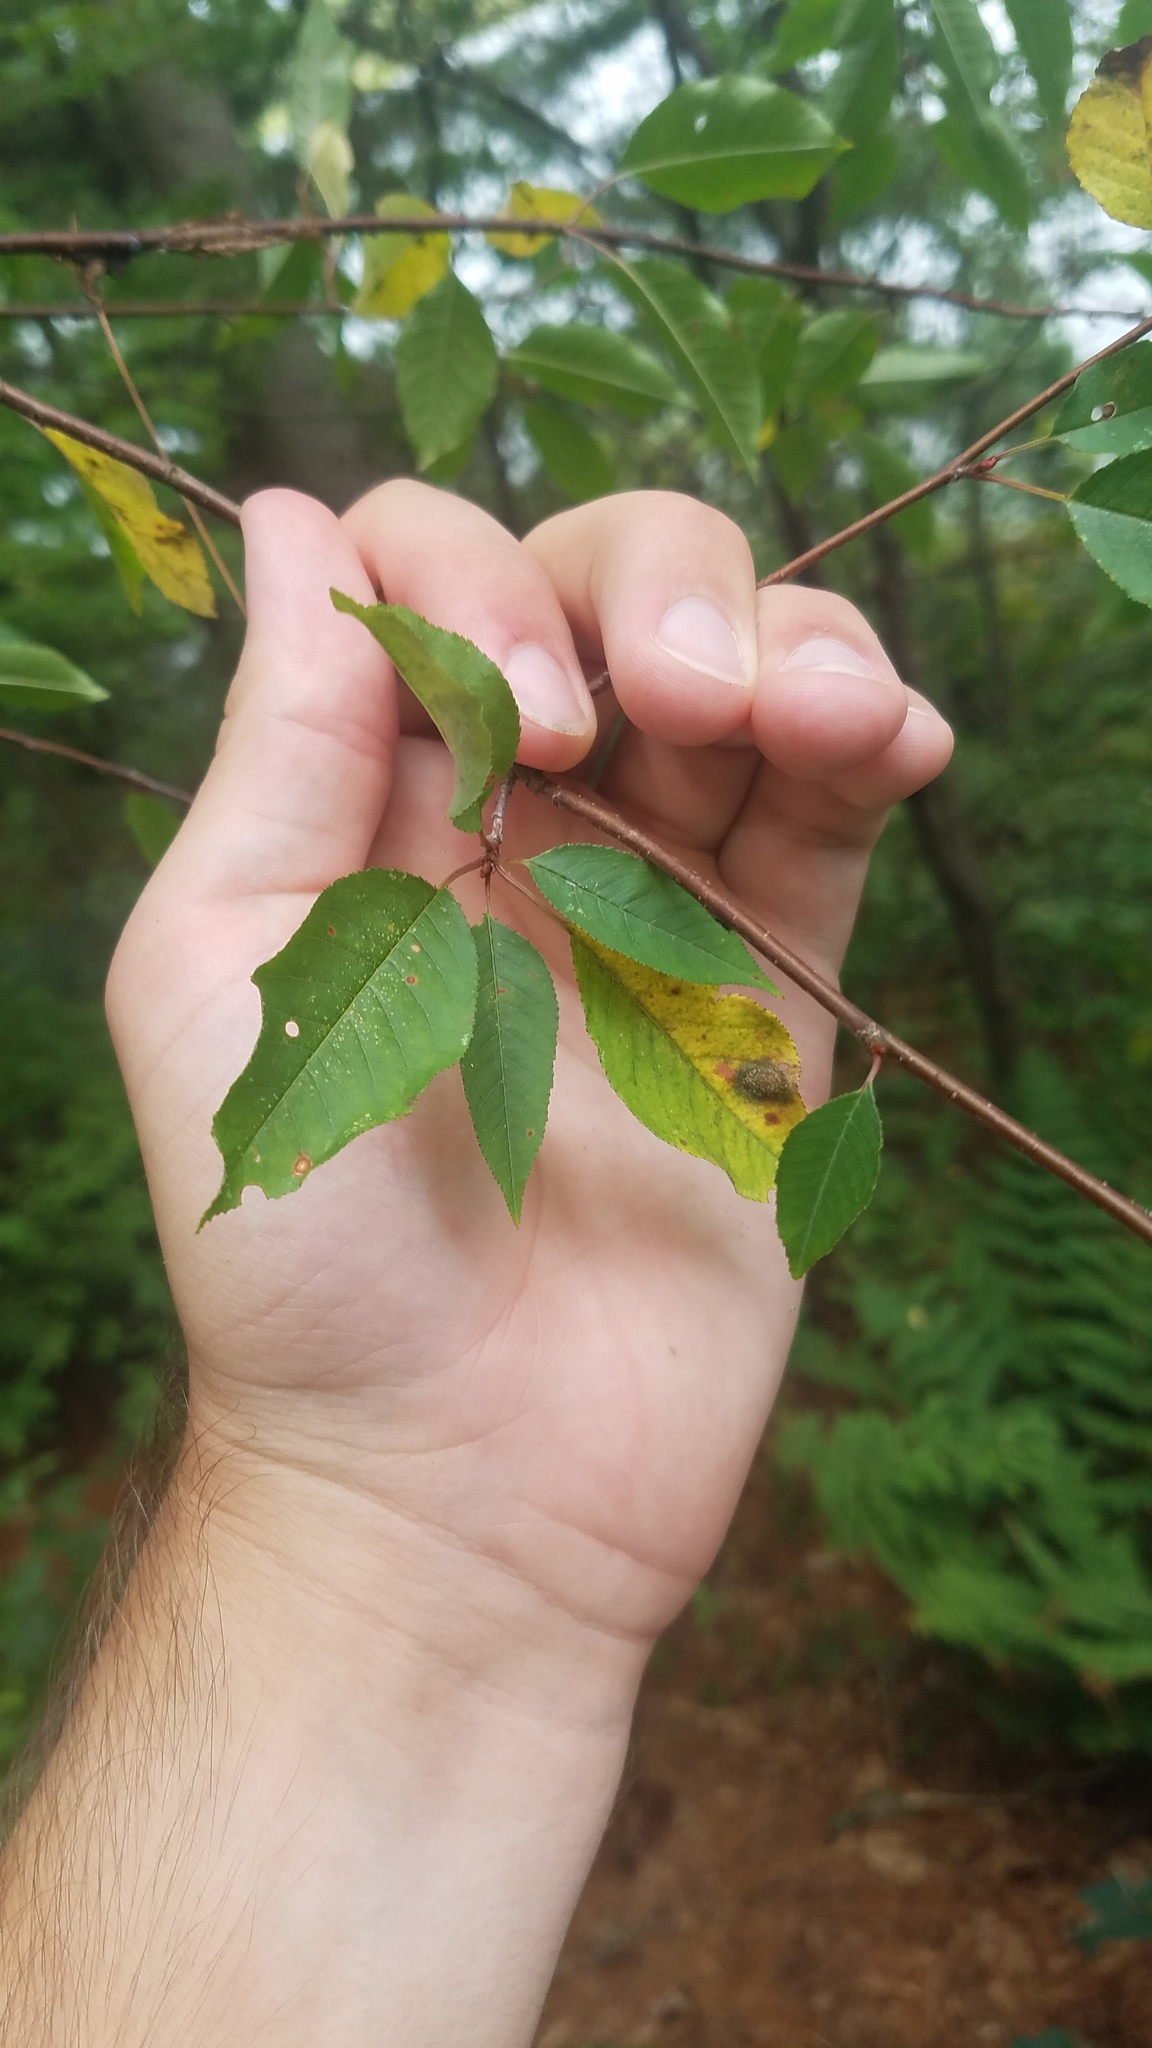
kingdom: Fungi
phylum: Ascomycota
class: Taphrinomycetes
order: Taphrinales
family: Taphrinaceae
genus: Taphrina
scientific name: Taphrina farlowii
